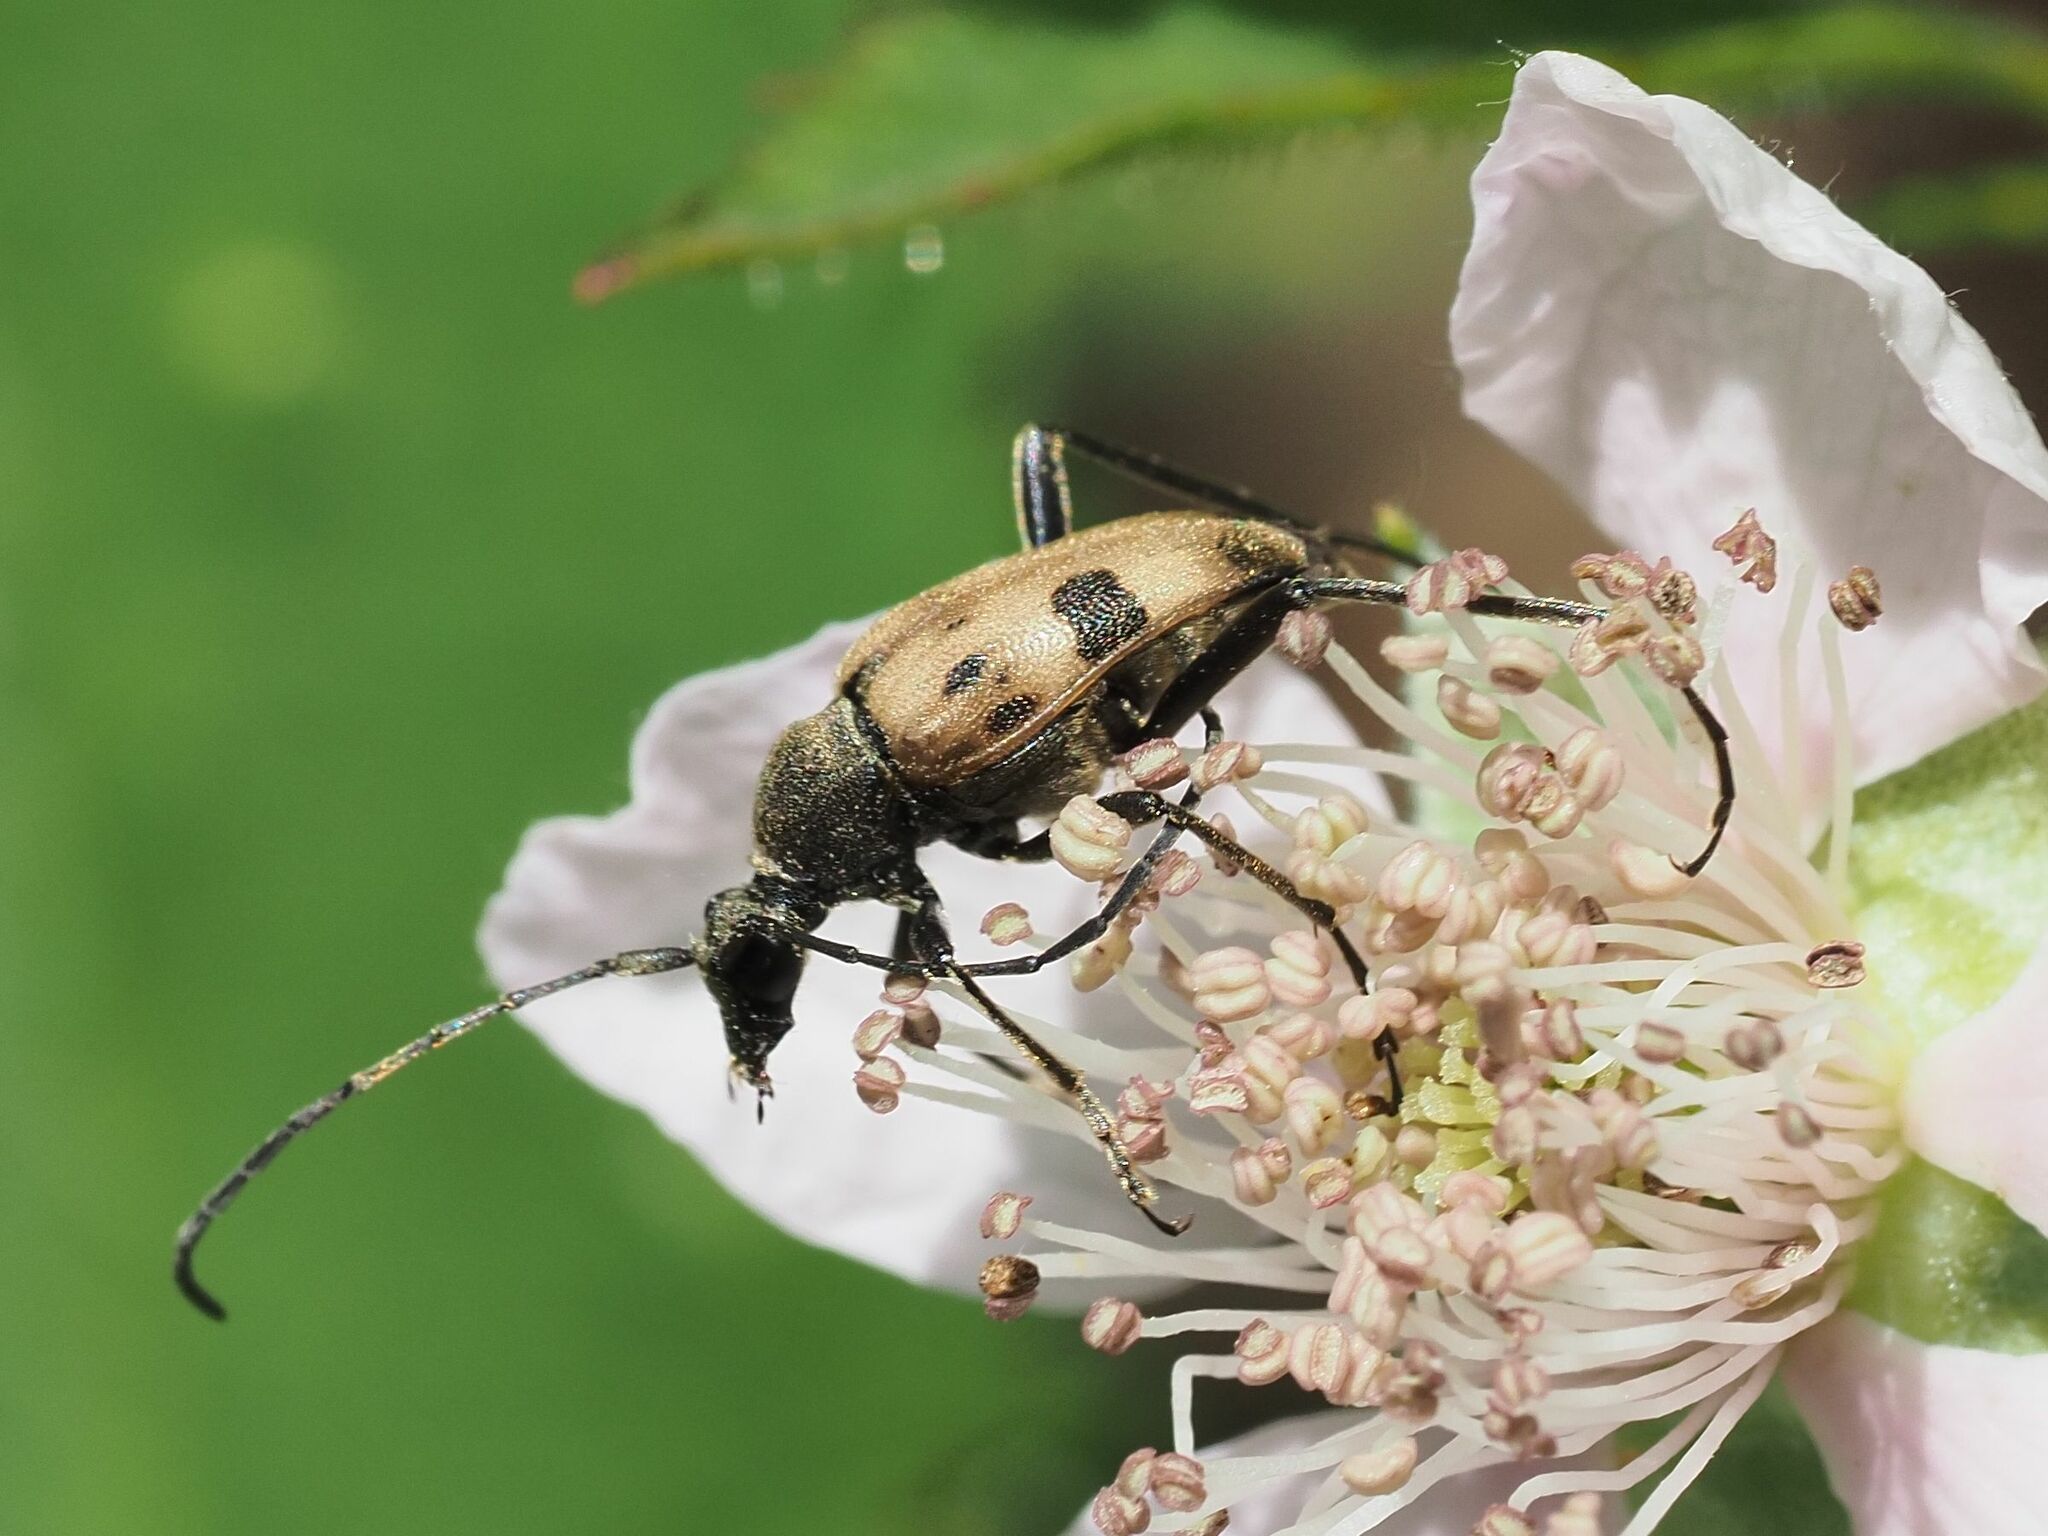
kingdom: Animalia
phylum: Arthropoda
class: Insecta
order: Coleoptera
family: Cerambycidae
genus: Pachytodes
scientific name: Pachytodes cerambyciformis
